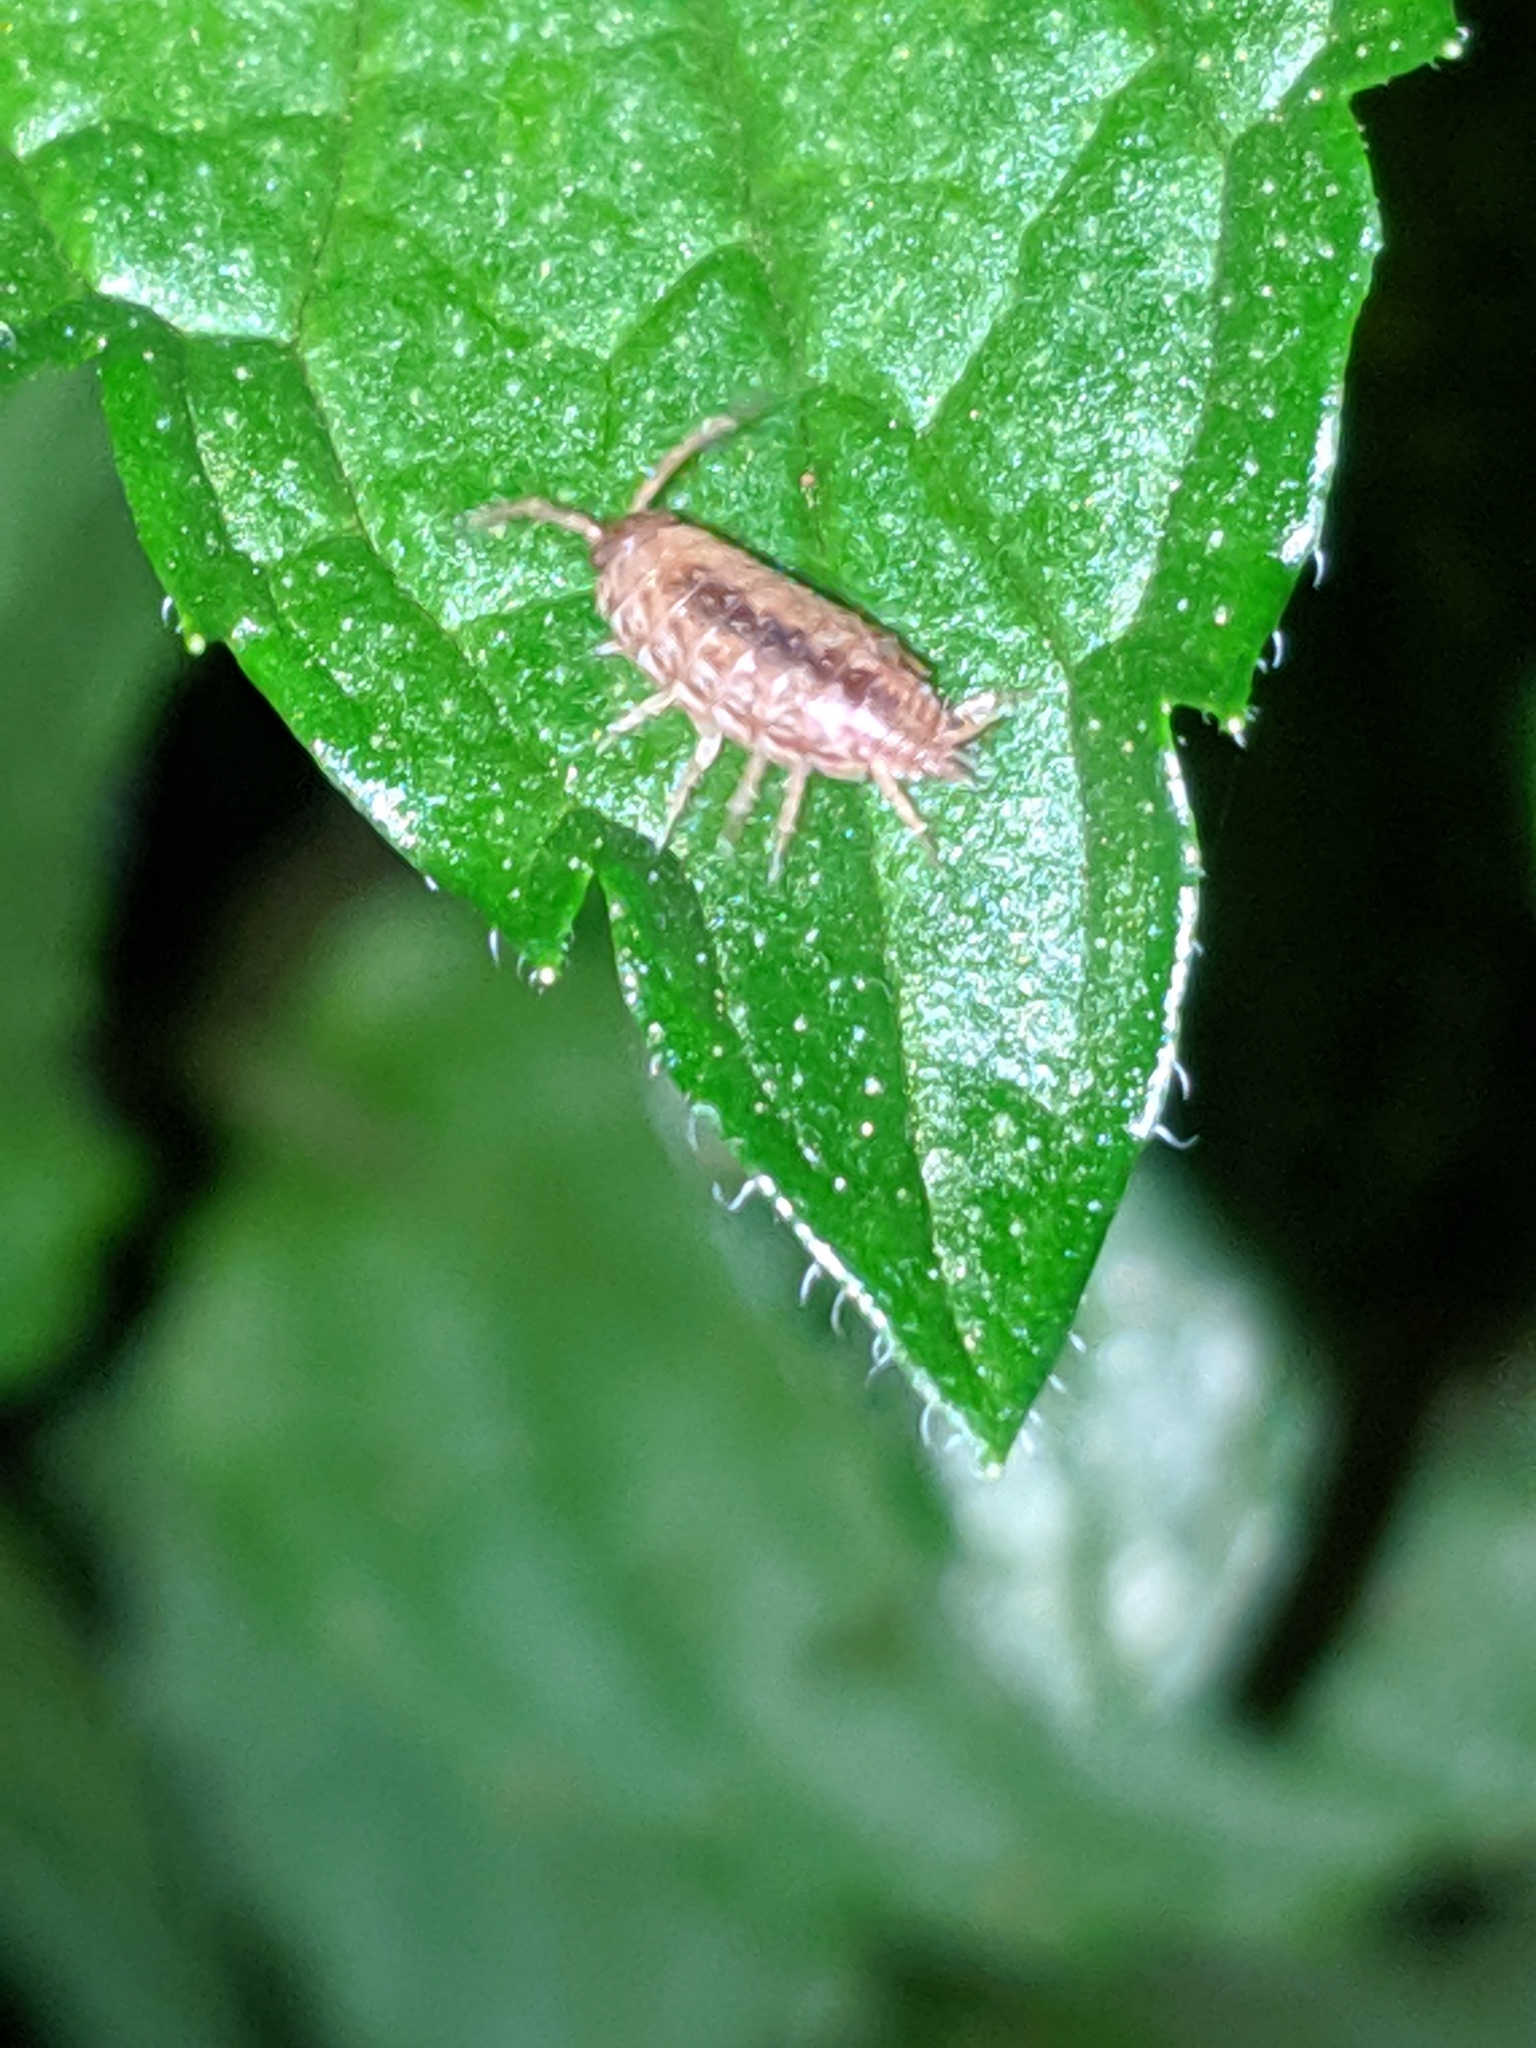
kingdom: Animalia
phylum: Arthropoda
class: Malacostraca
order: Isopoda
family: Philosciidae
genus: Philoscia
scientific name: Philoscia muscorum
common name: Common striped woodlouse
